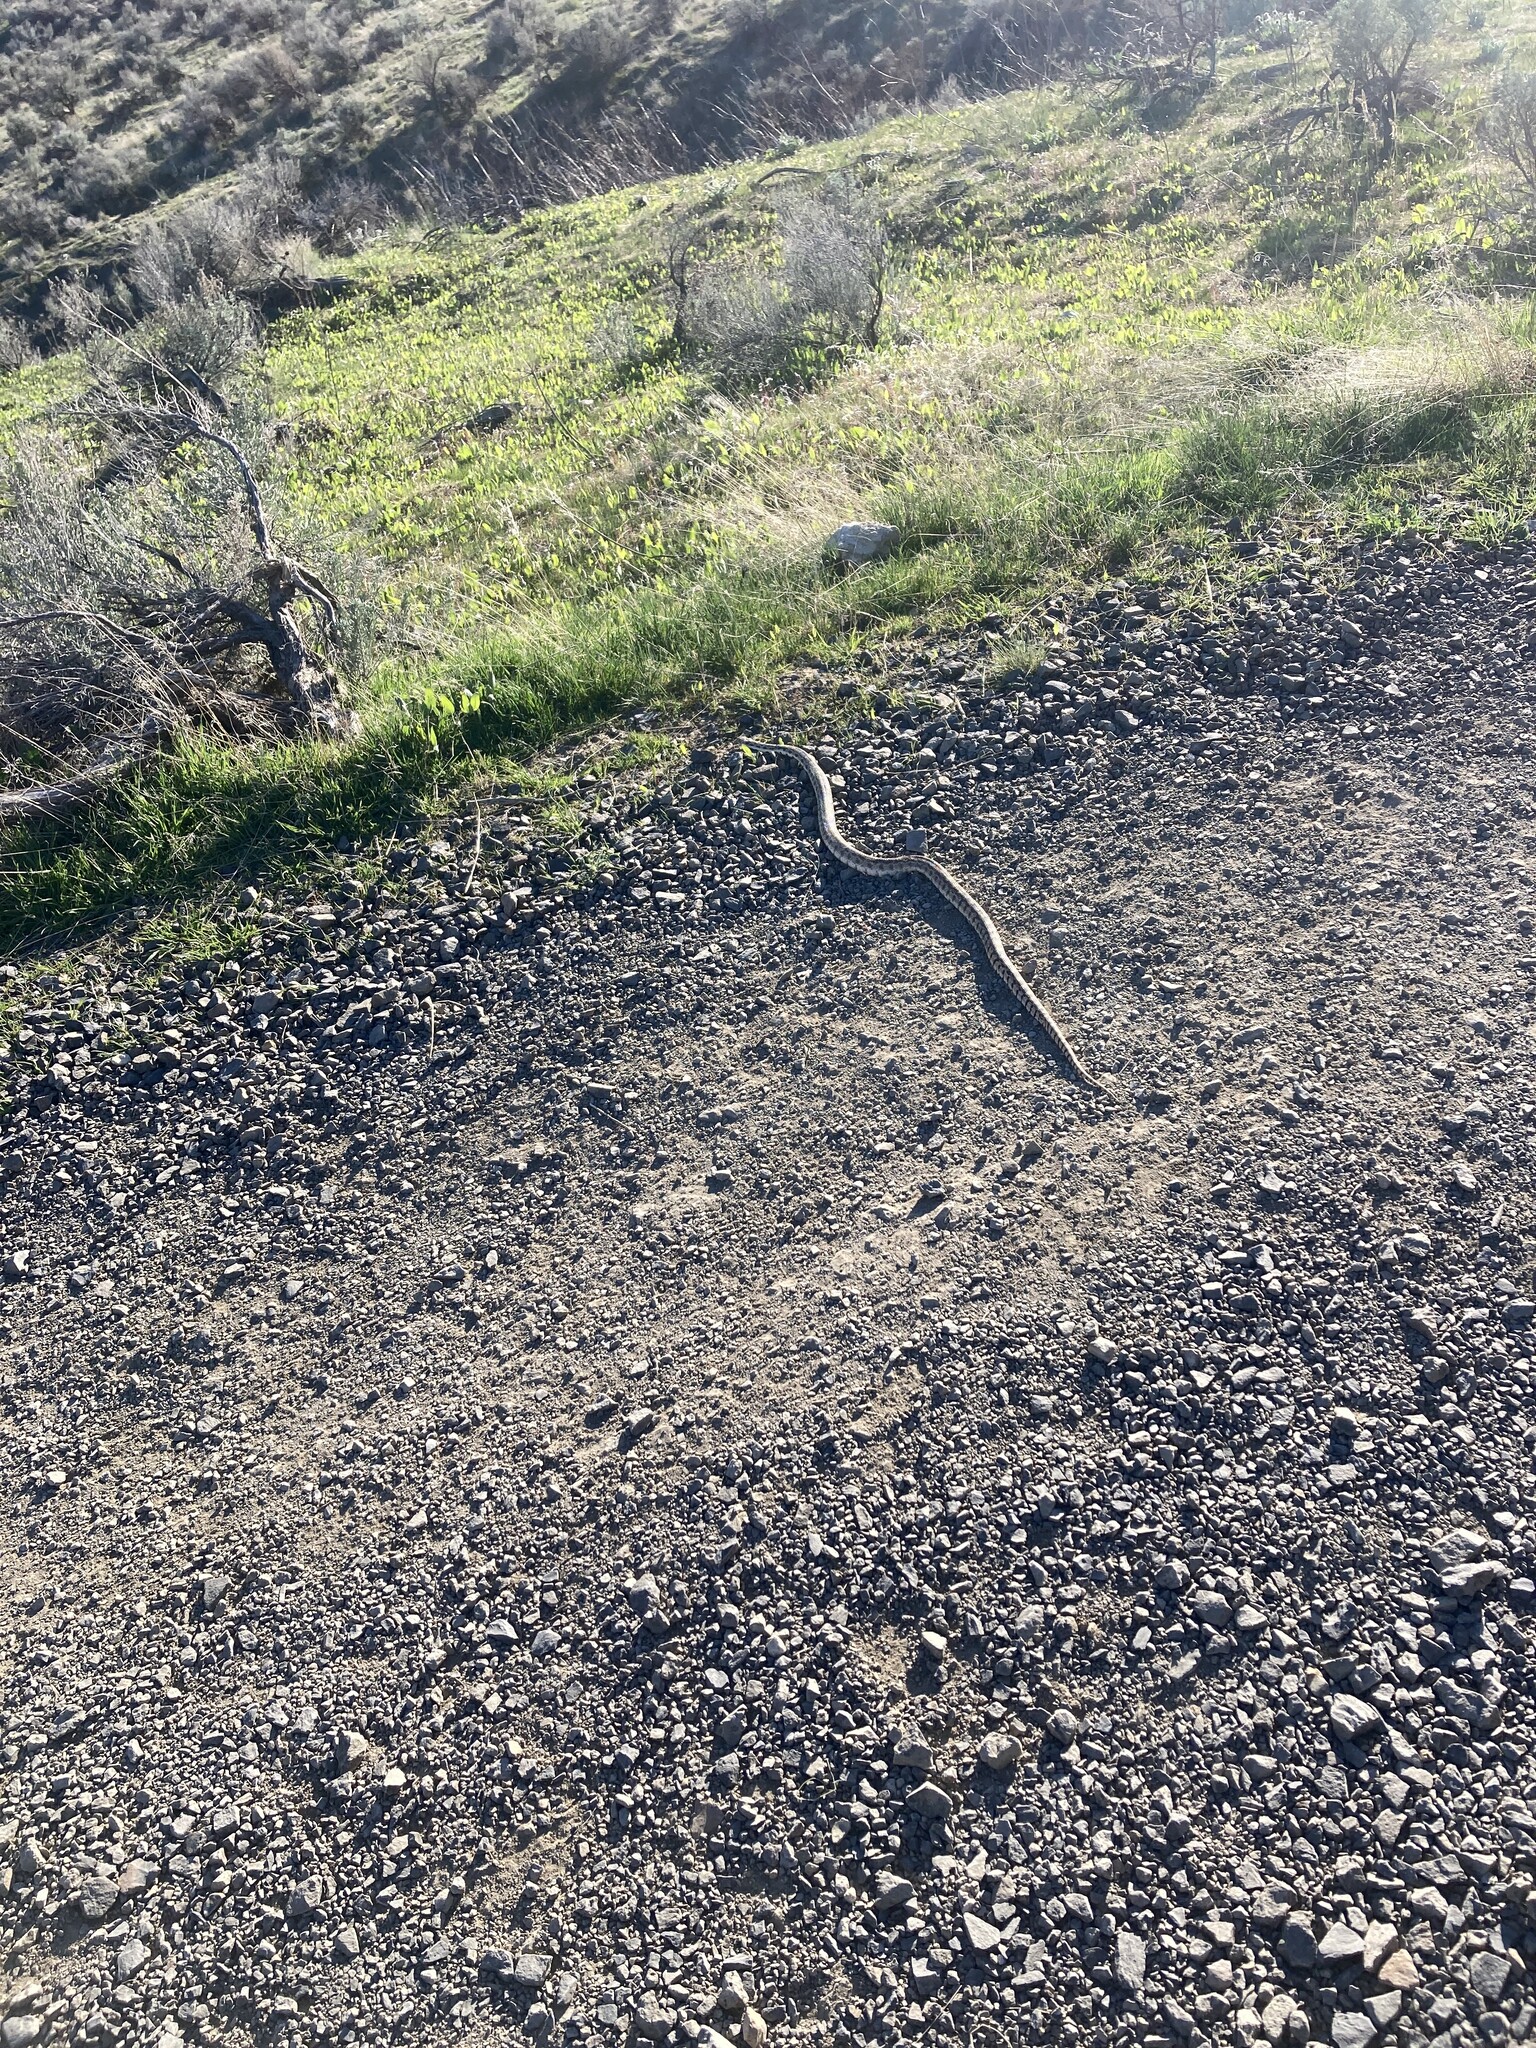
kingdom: Animalia
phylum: Chordata
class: Squamata
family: Colubridae
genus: Pituophis
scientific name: Pituophis catenifer
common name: Gopher snake
